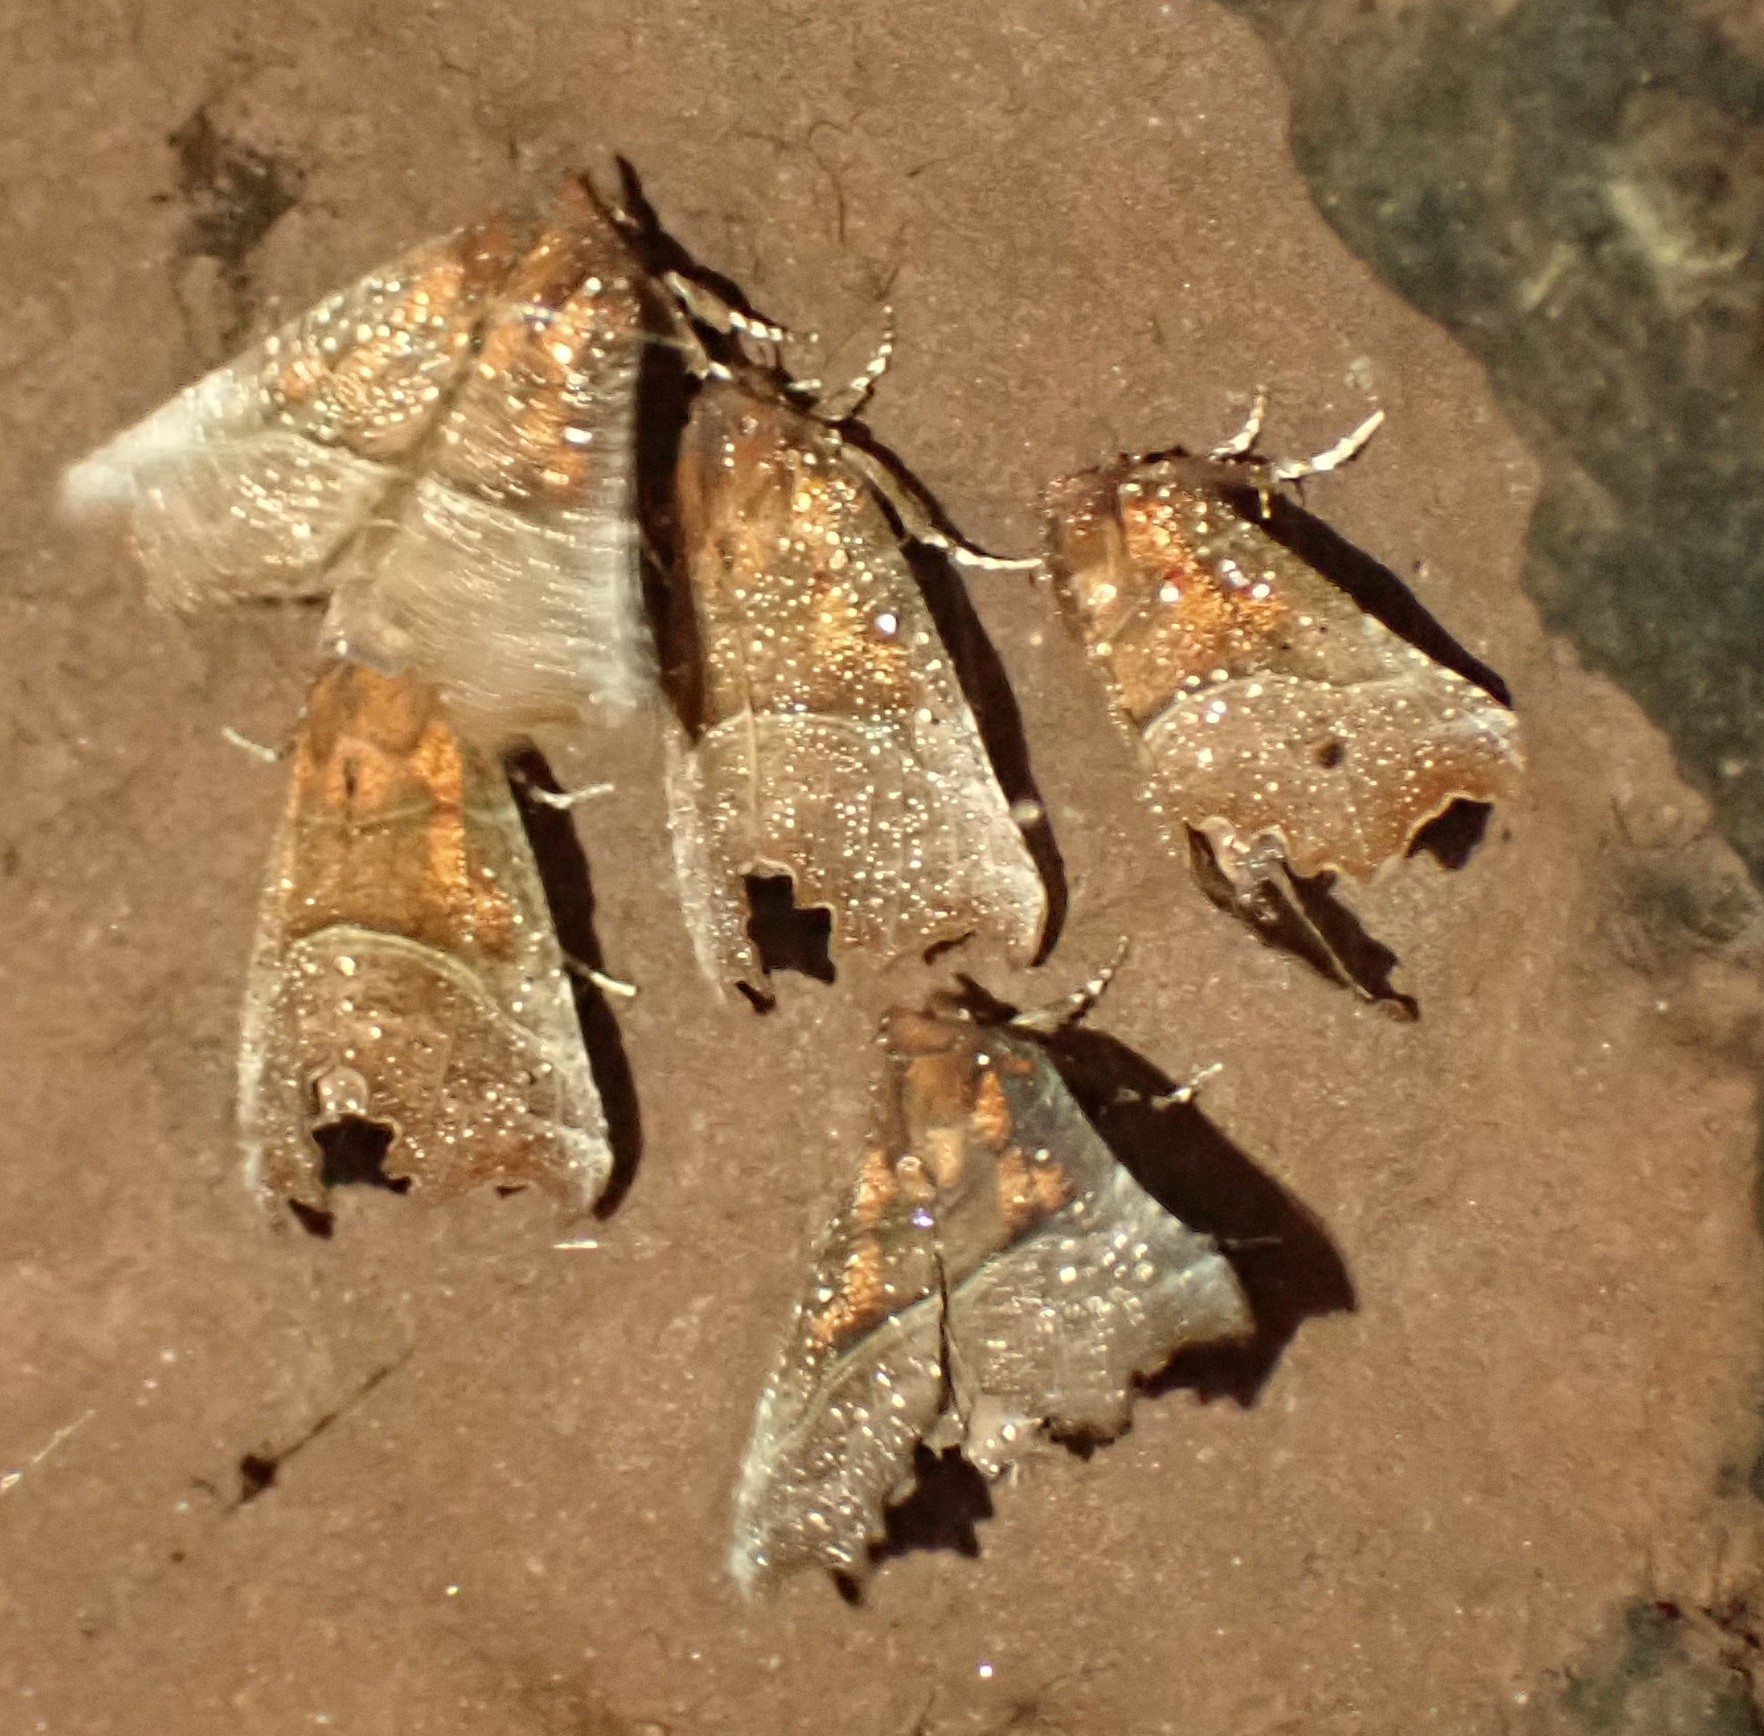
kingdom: Animalia
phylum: Arthropoda
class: Insecta
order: Lepidoptera
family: Erebidae
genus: Scoliopteryx
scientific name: Scoliopteryx libatrix
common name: Herald
